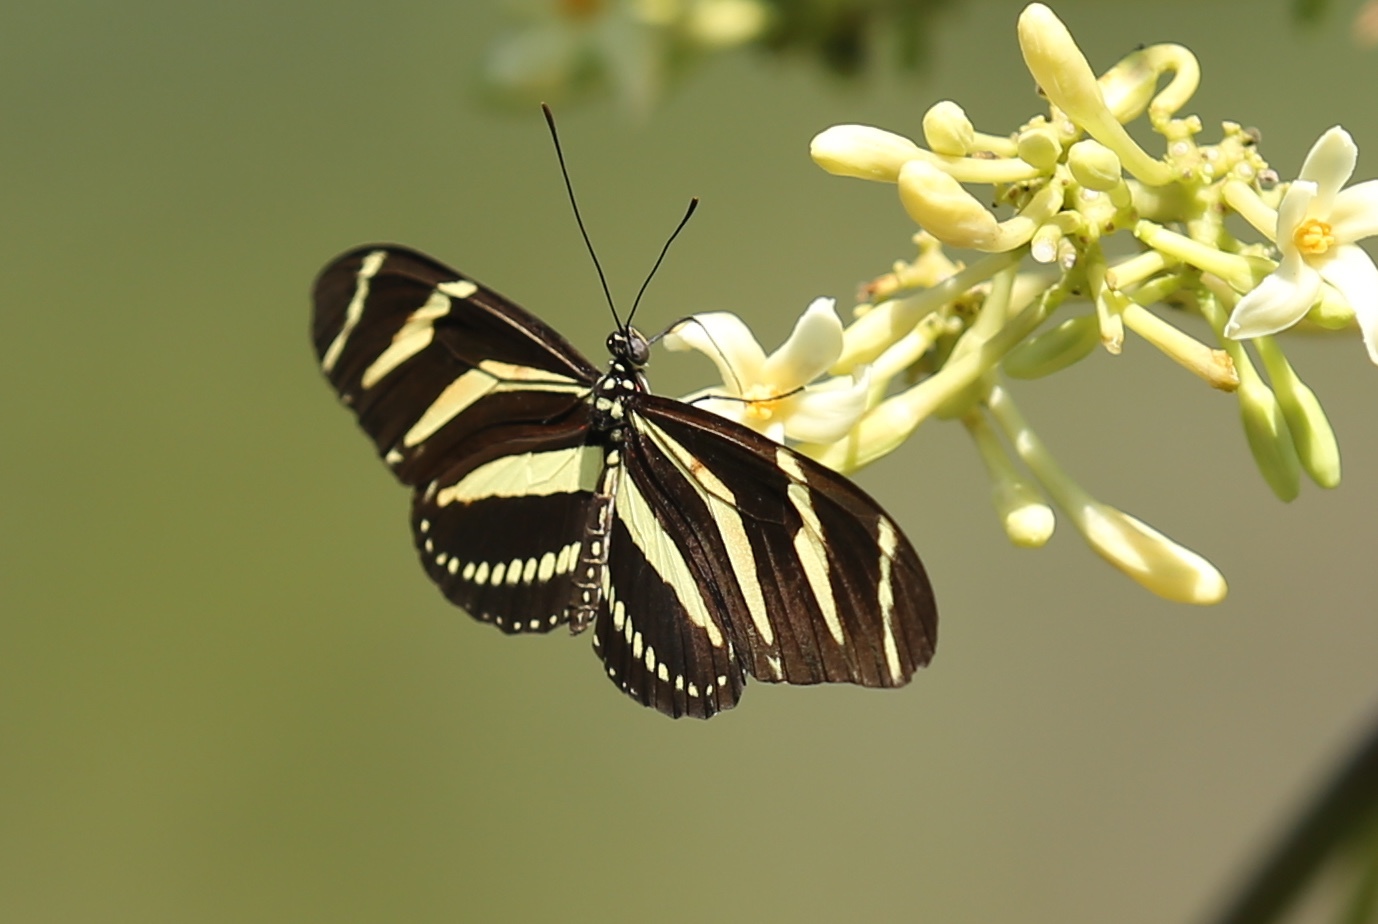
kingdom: Animalia
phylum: Arthropoda
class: Insecta
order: Lepidoptera
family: Nymphalidae
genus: Heliconius
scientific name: Heliconius charithonia
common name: Zebra long wing
